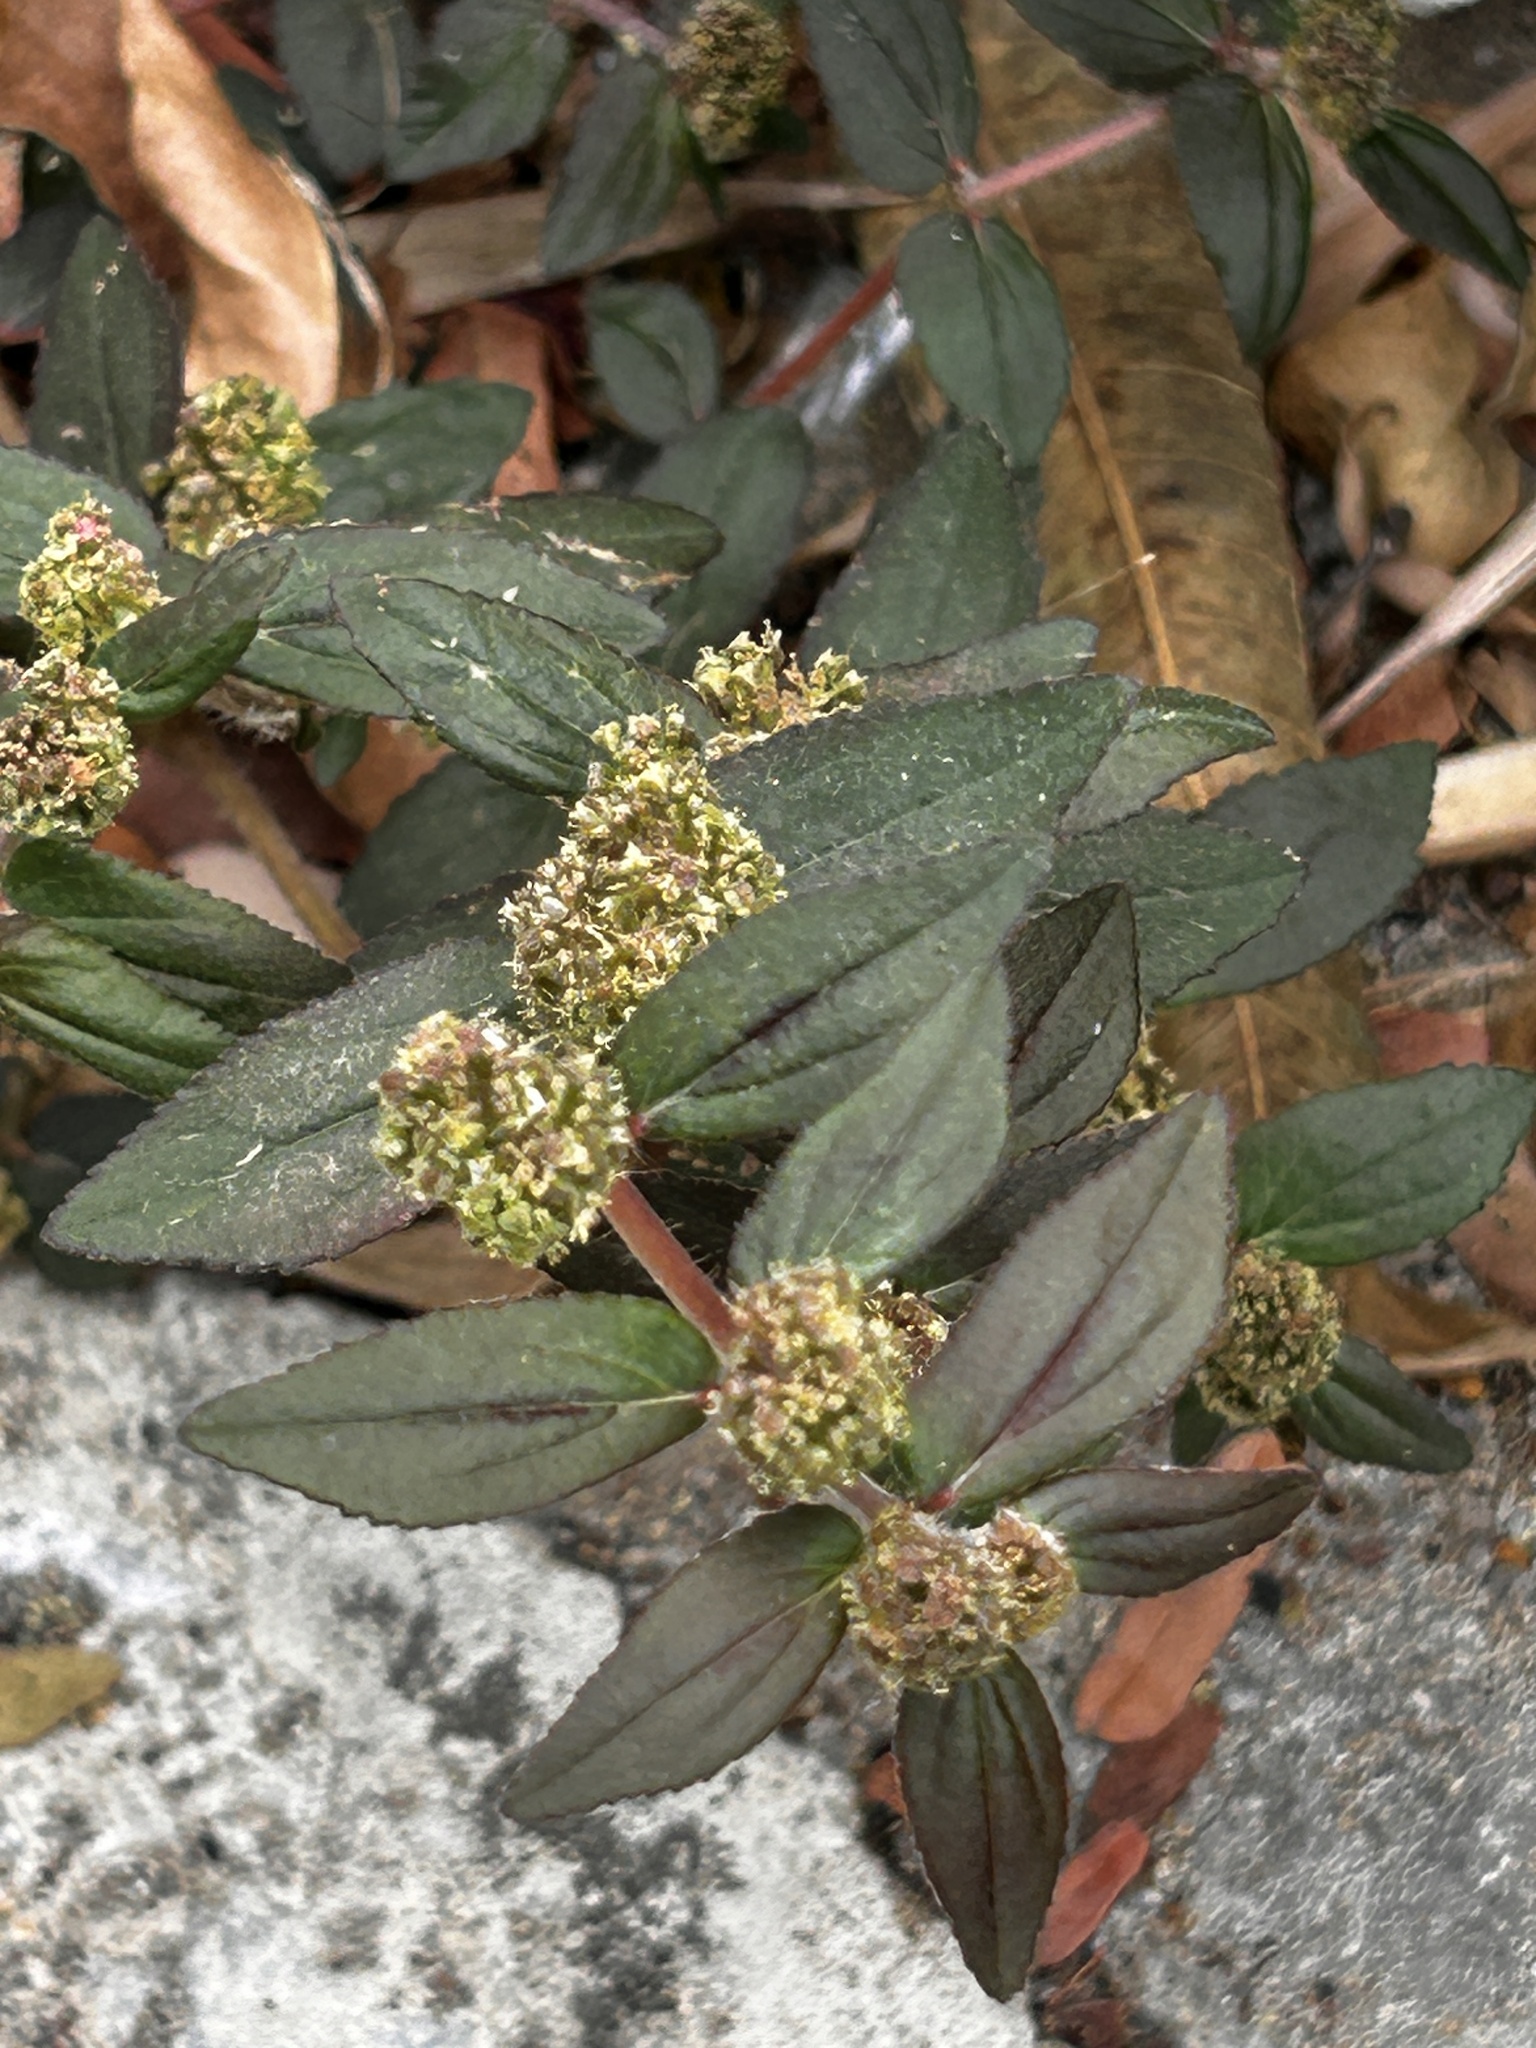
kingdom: Plantae
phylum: Tracheophyta
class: Magnoliopsida
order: Malpighiales
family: Euphorbiaceae
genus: Euphorbia
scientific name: Euphorbia hirta
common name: Pillpod sandmat
